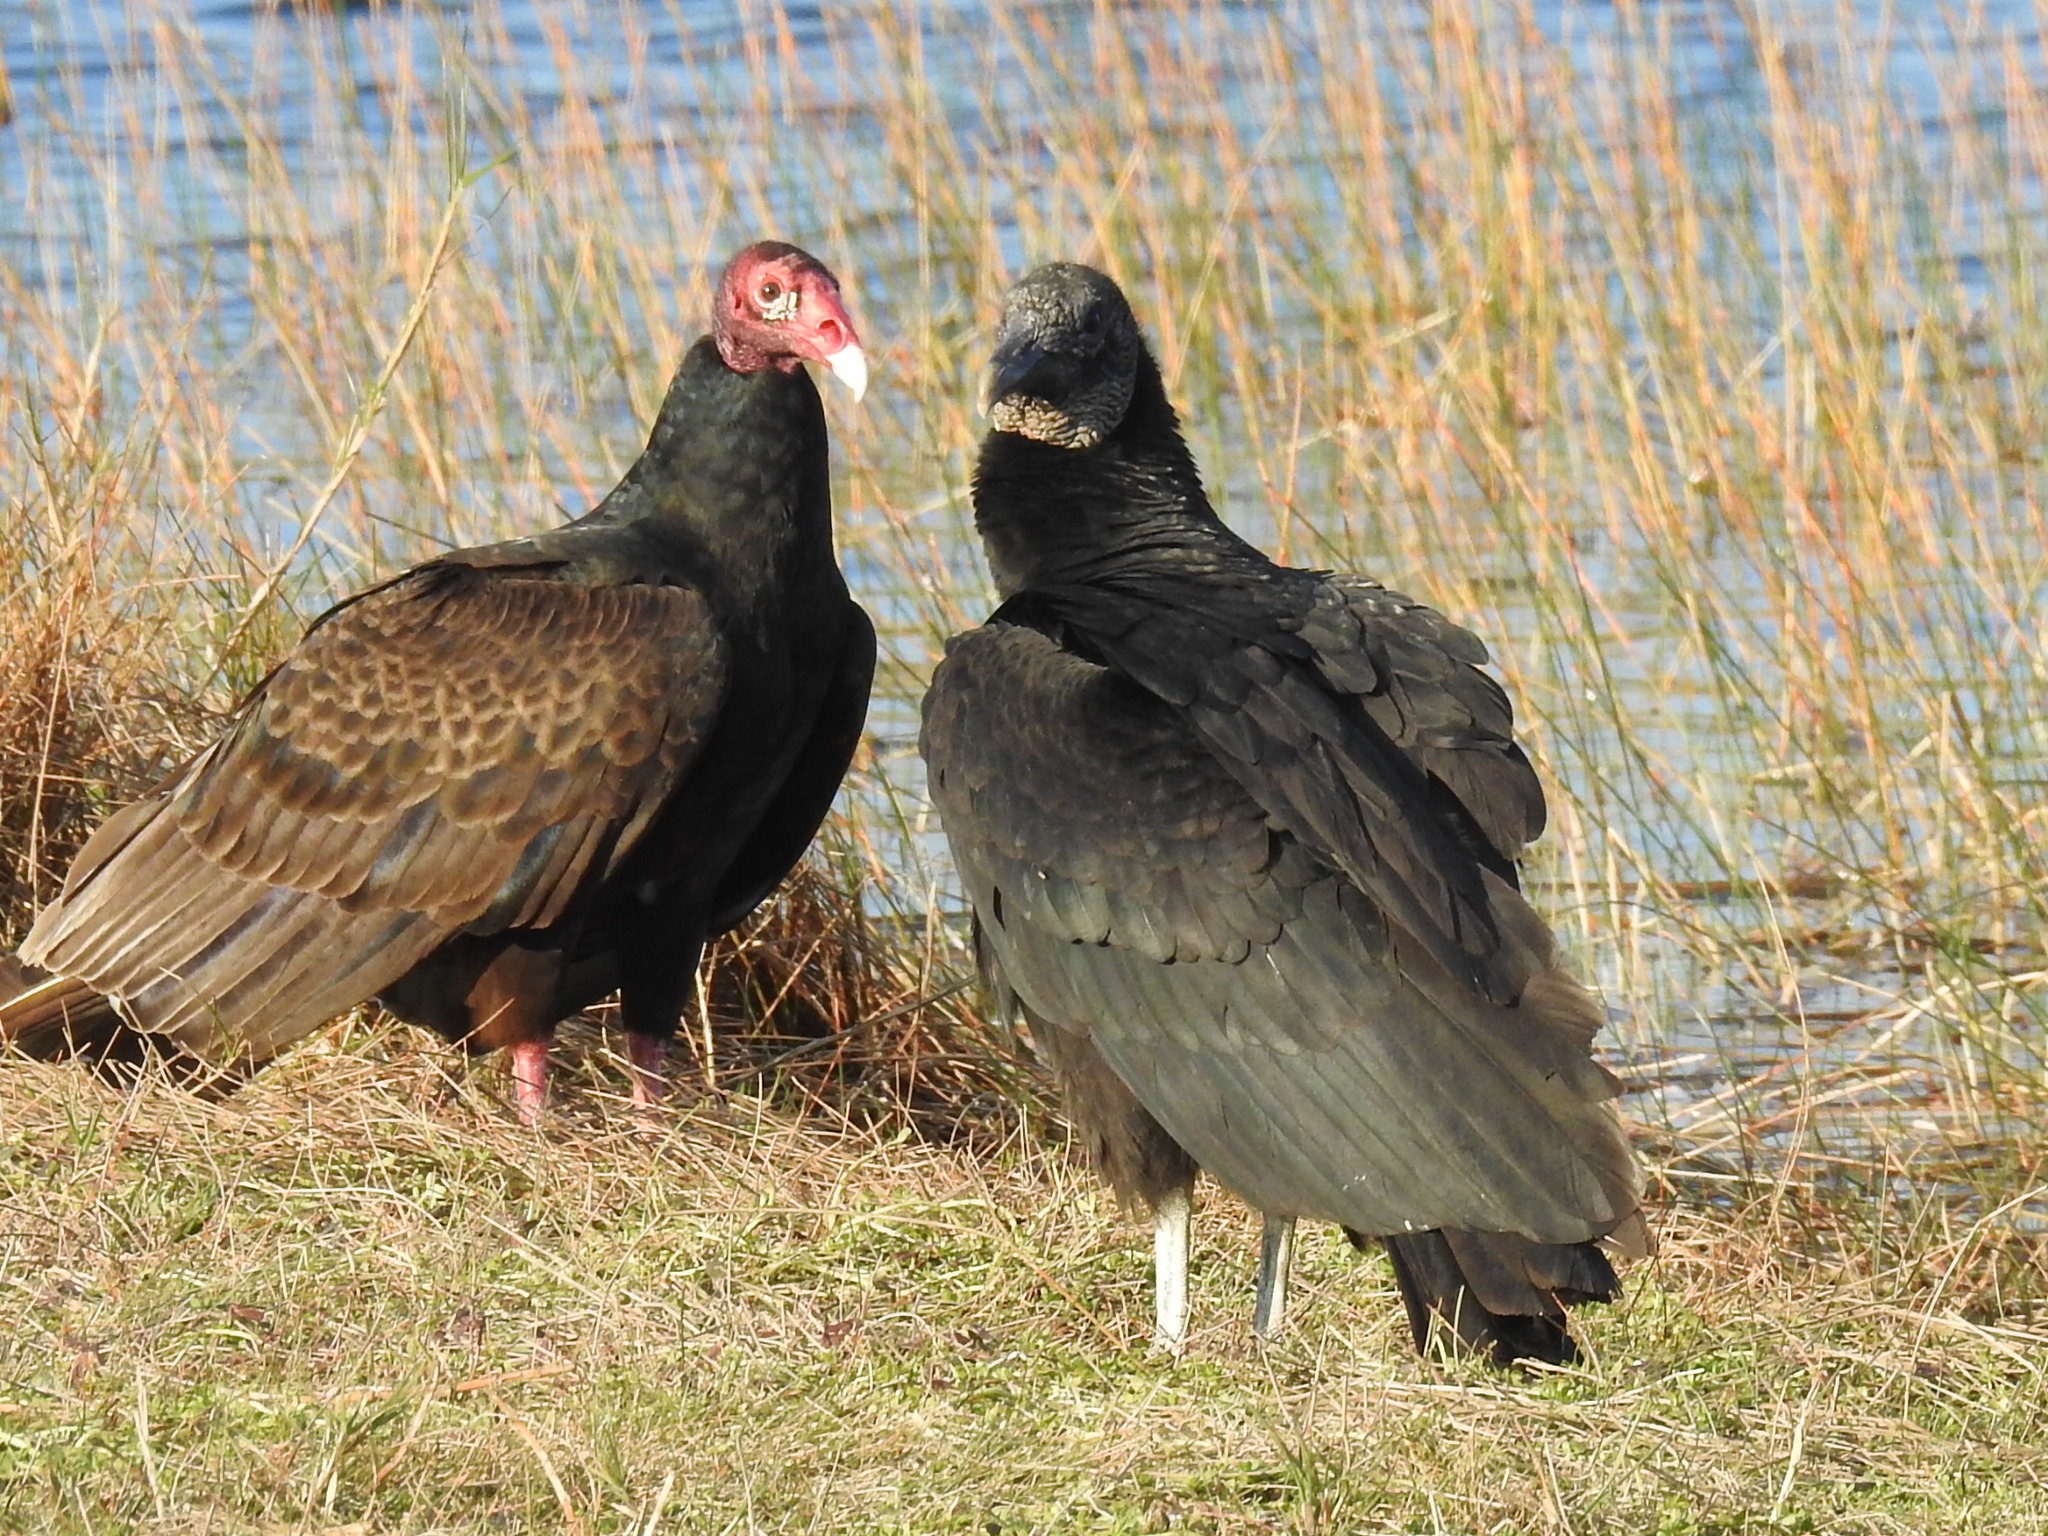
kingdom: Animalia
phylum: Chordata
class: Aves
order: Accipitriformes
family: Cathartidae
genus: Coragyps
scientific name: Coragyps atratus
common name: Black vulture
